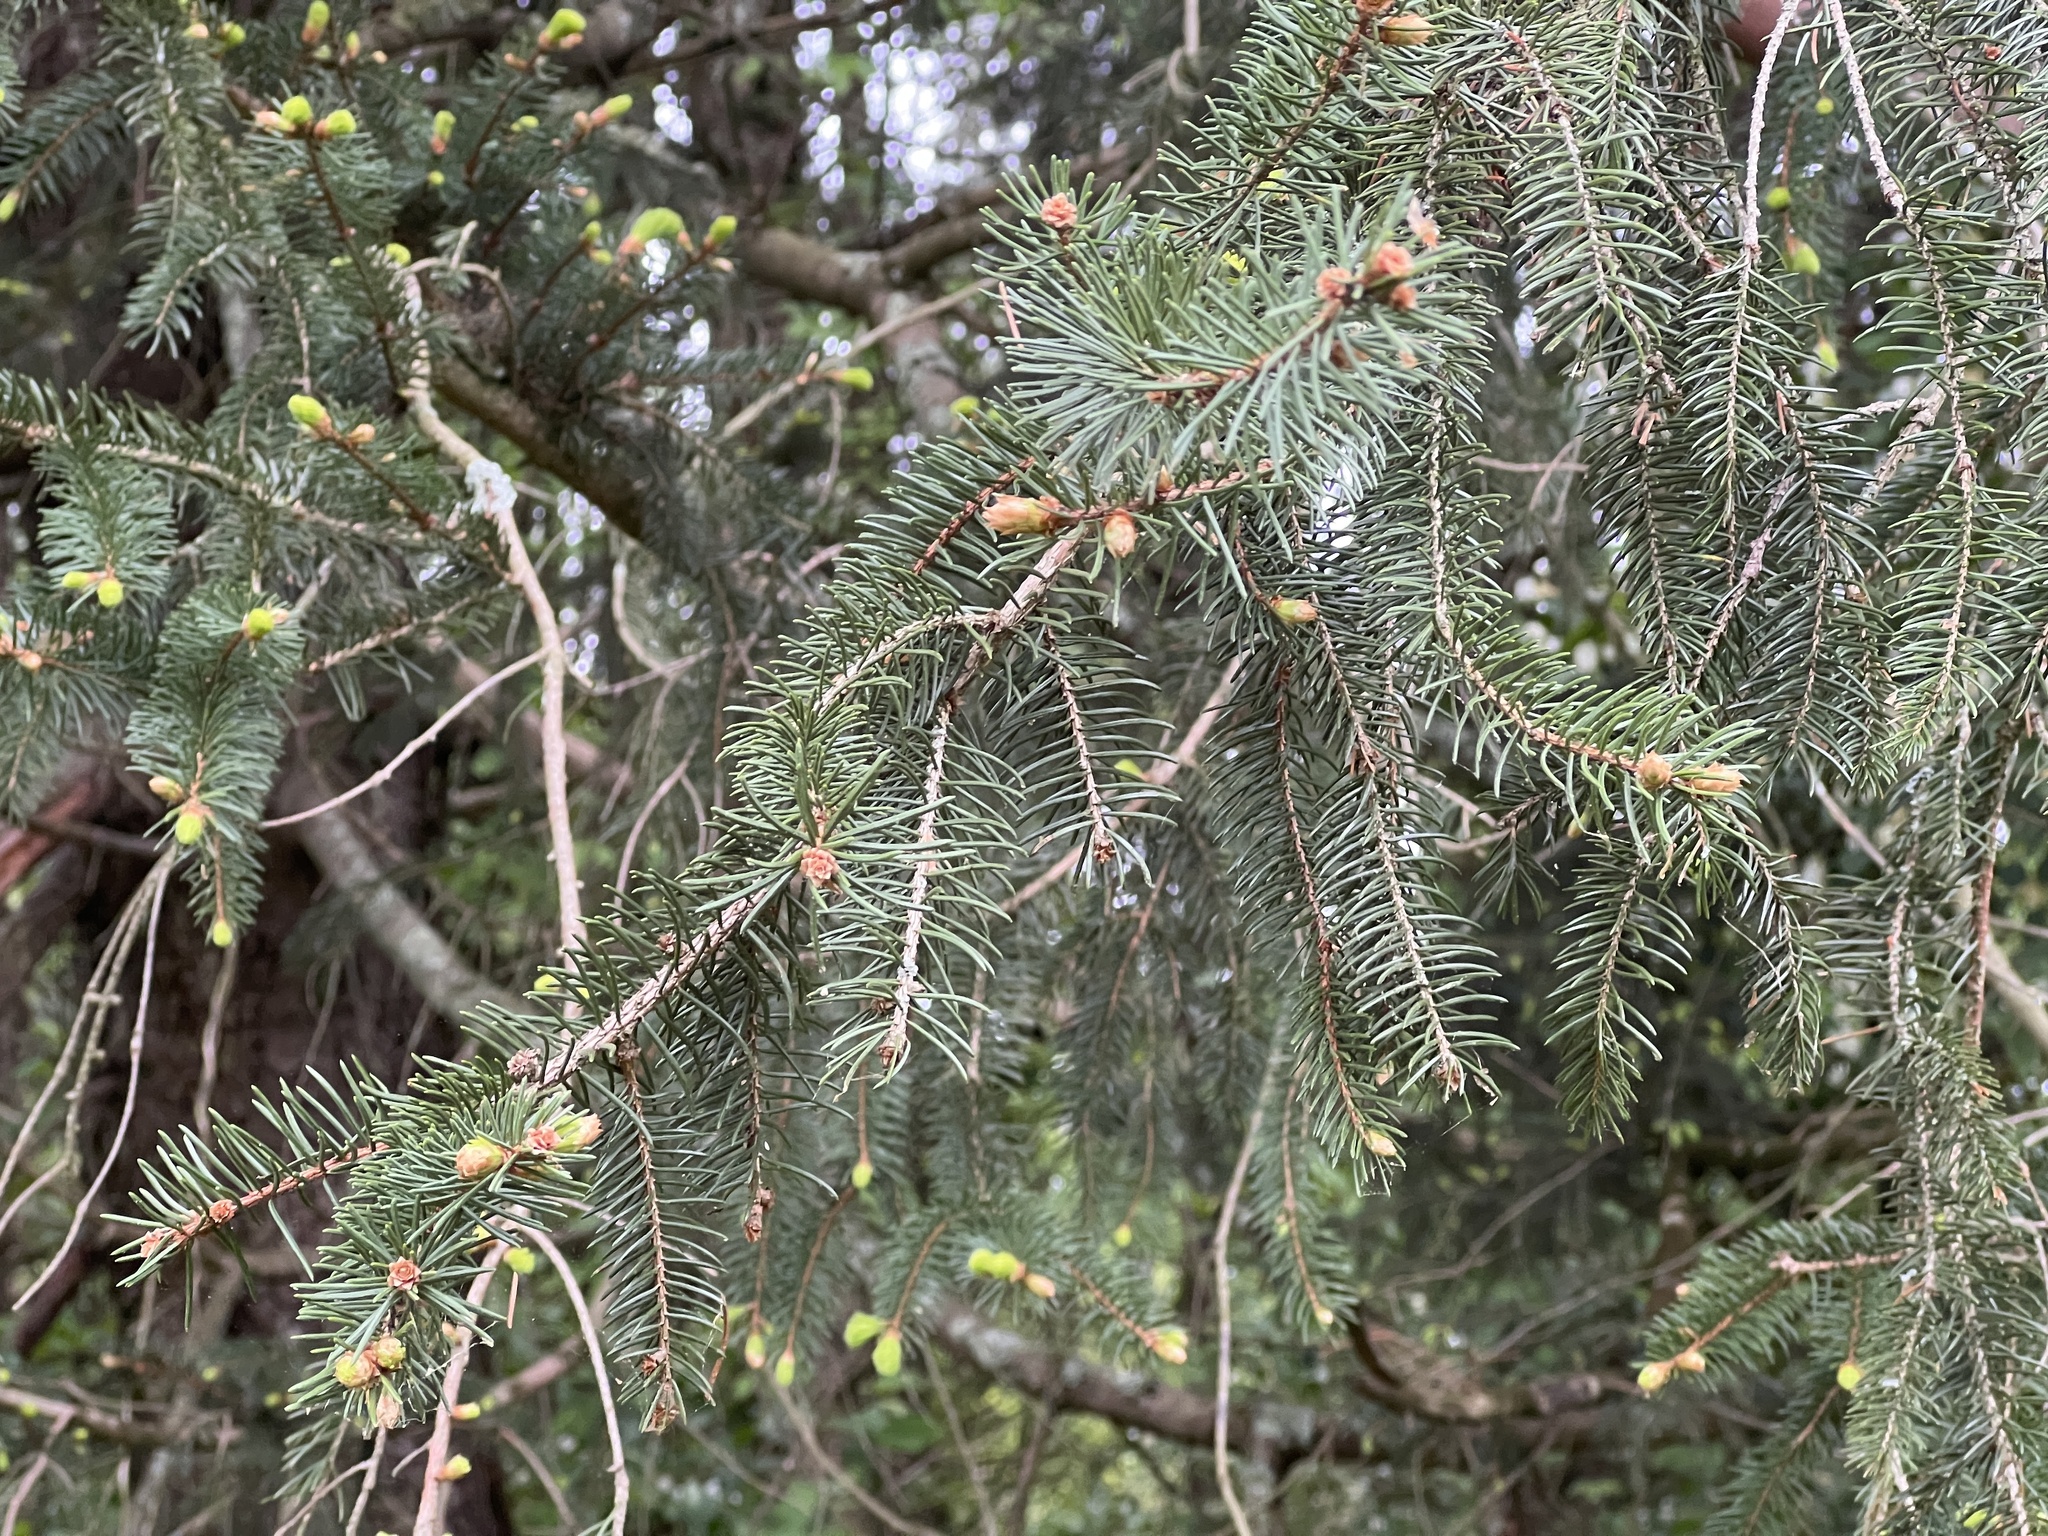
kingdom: Plantae
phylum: Tracheophyta
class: Pinopsida
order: Pinales
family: Pinaceae
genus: Picea
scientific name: Picea abies
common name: Norway spruce
